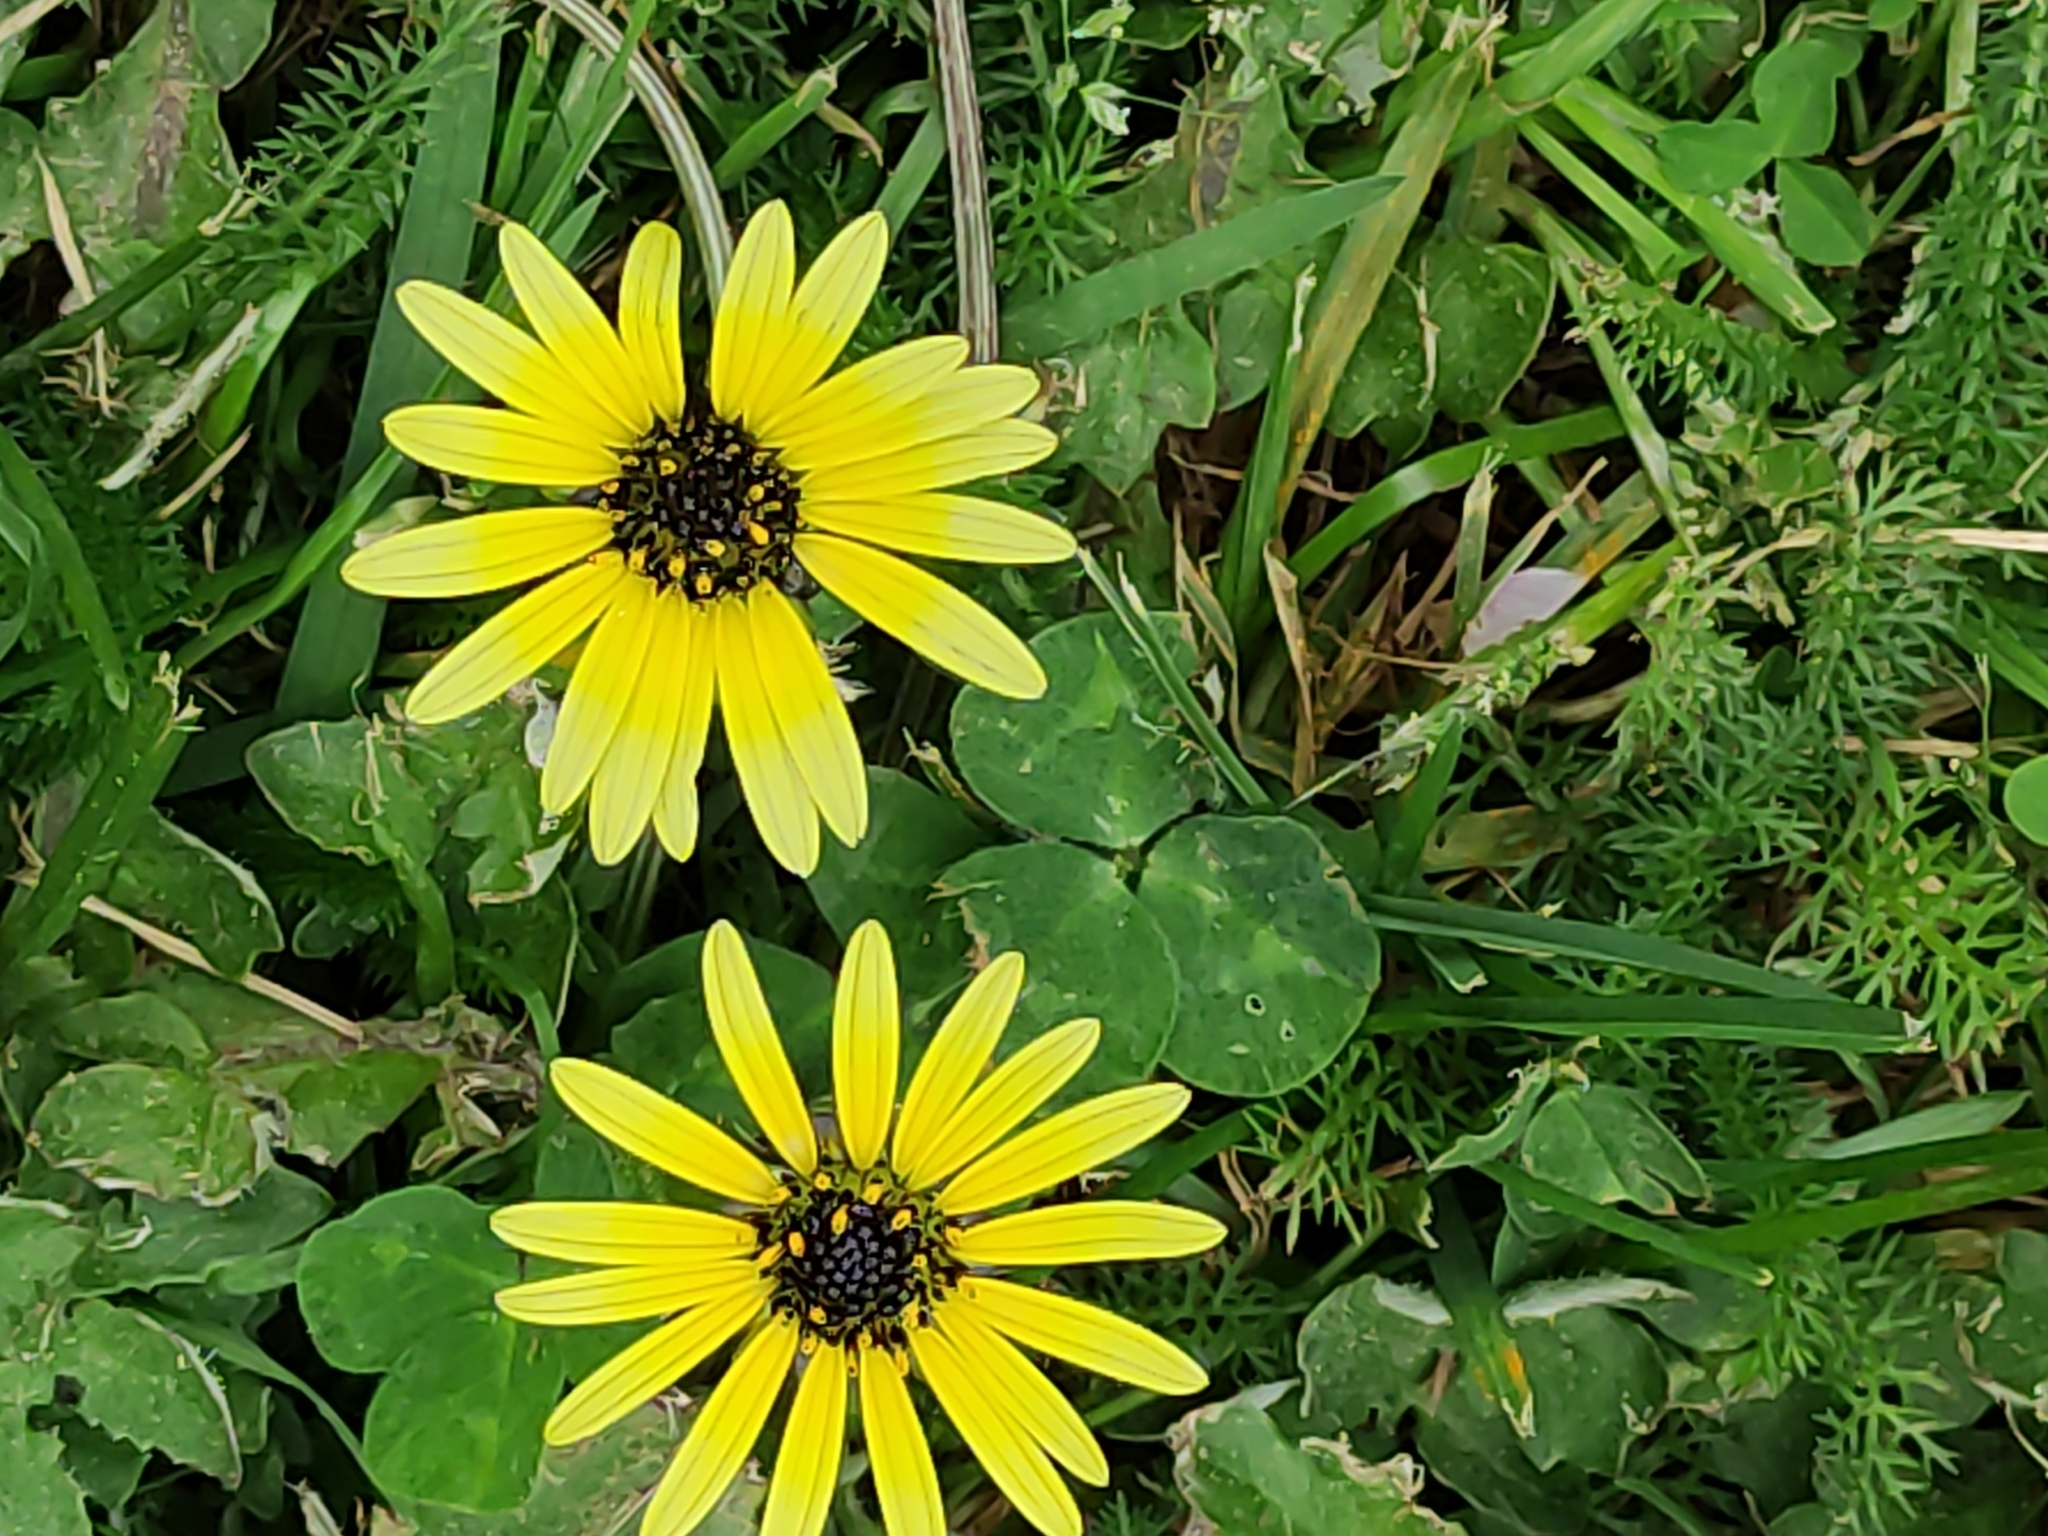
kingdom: Plantae
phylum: Tracheophyta
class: Magnoliopsida
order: Asterales
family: Asteraceae
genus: Arctotheca
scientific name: Arctotheca calendula
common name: Capeweed
